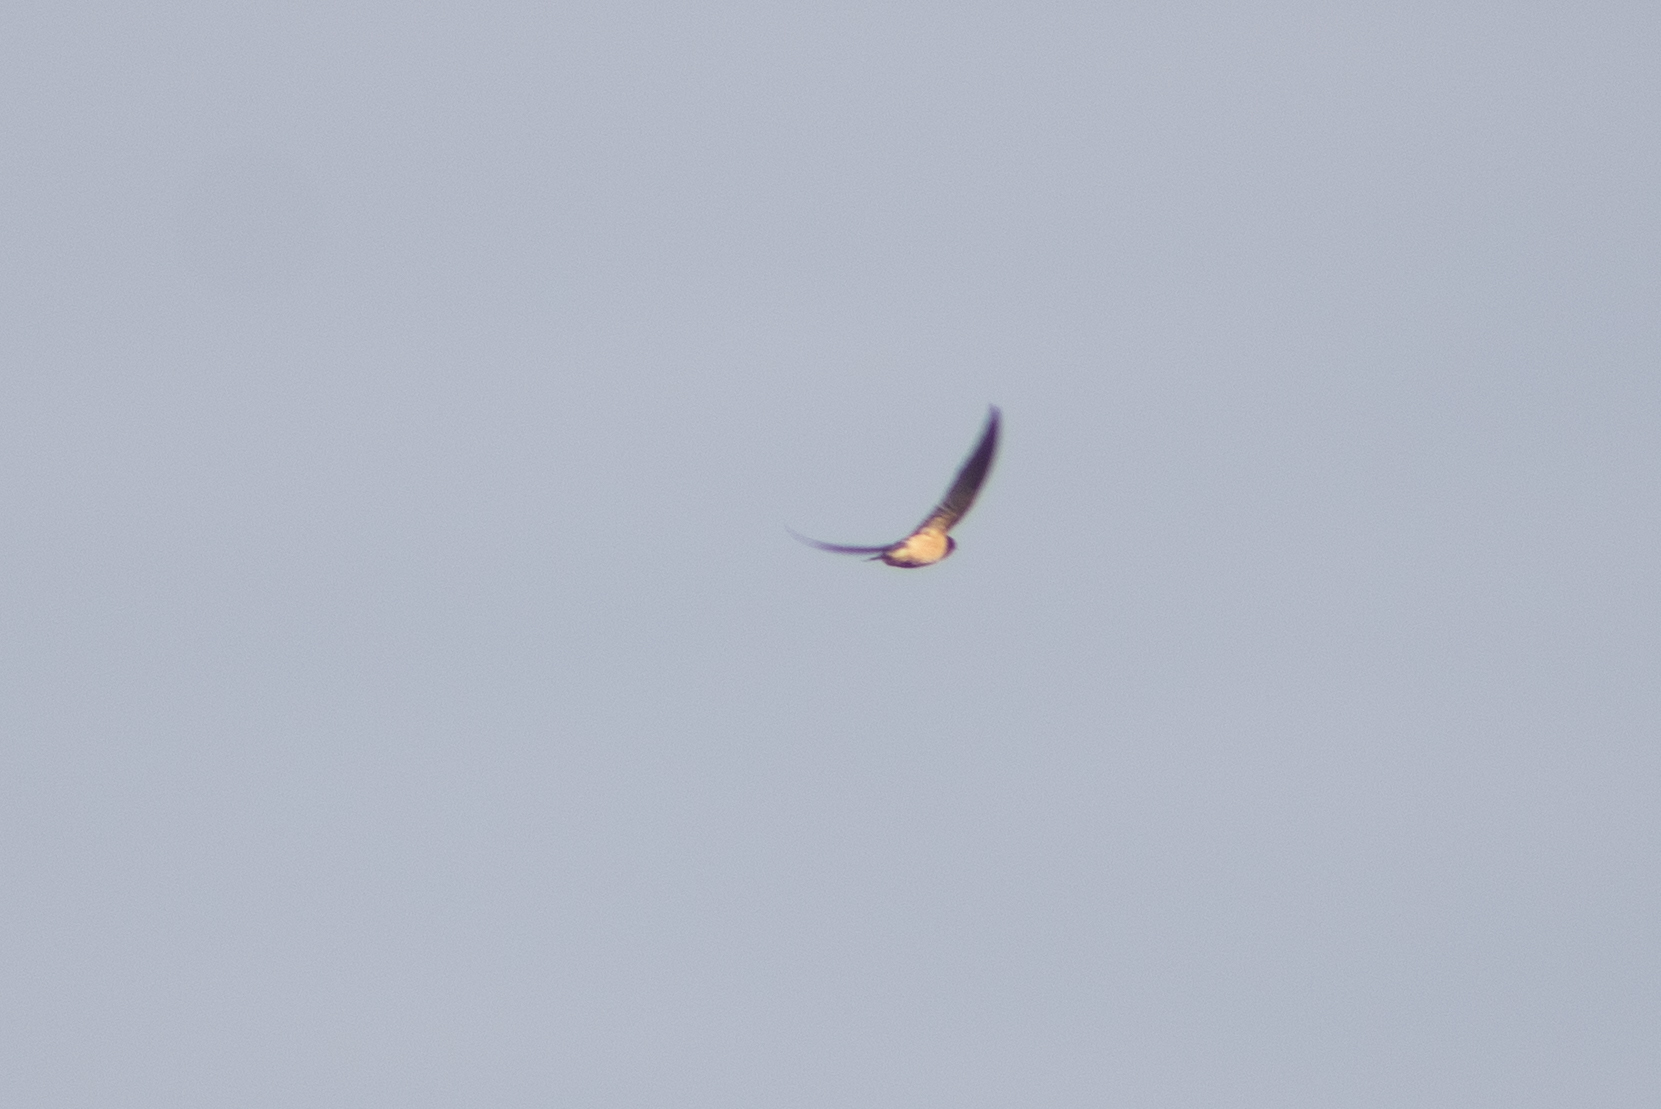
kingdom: Animalia
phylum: Chordata
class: Aves
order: Passeriformes
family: Hirundinidae
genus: Hirundo
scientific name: Hirundo rustica
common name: Barn swallow
